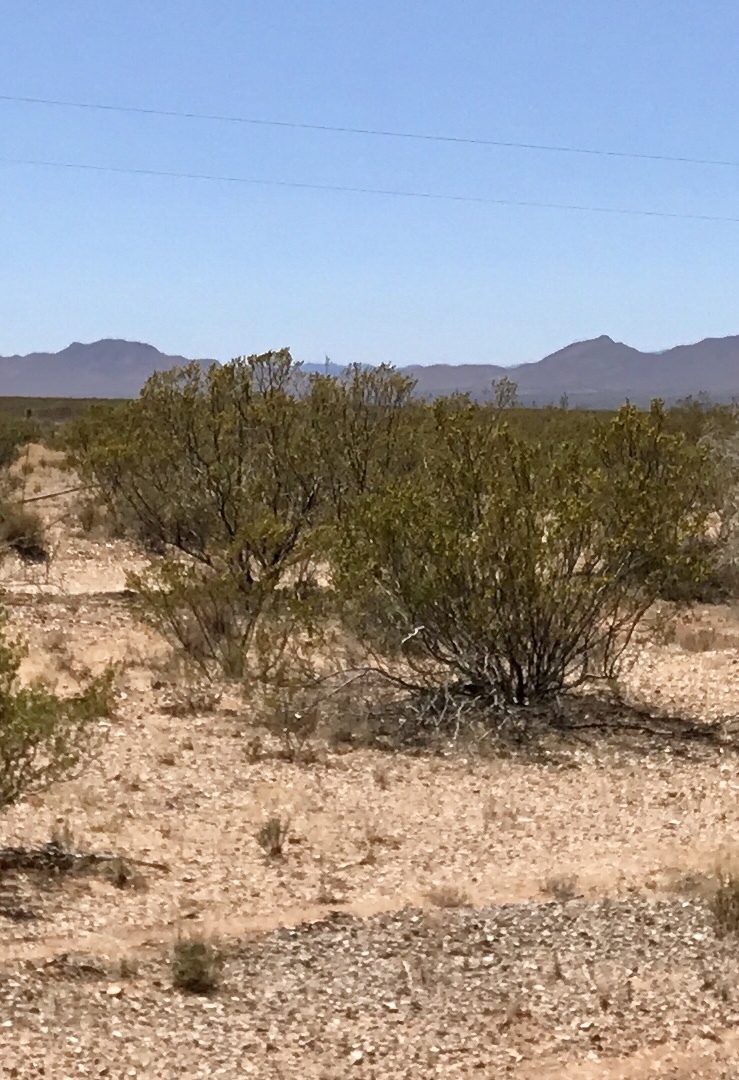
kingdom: Plantae
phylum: Tracheophyta
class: Magnoliopsida
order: Zygophyllales
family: Zygophyllaceae
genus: Larrea
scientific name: Larrea tridentata
